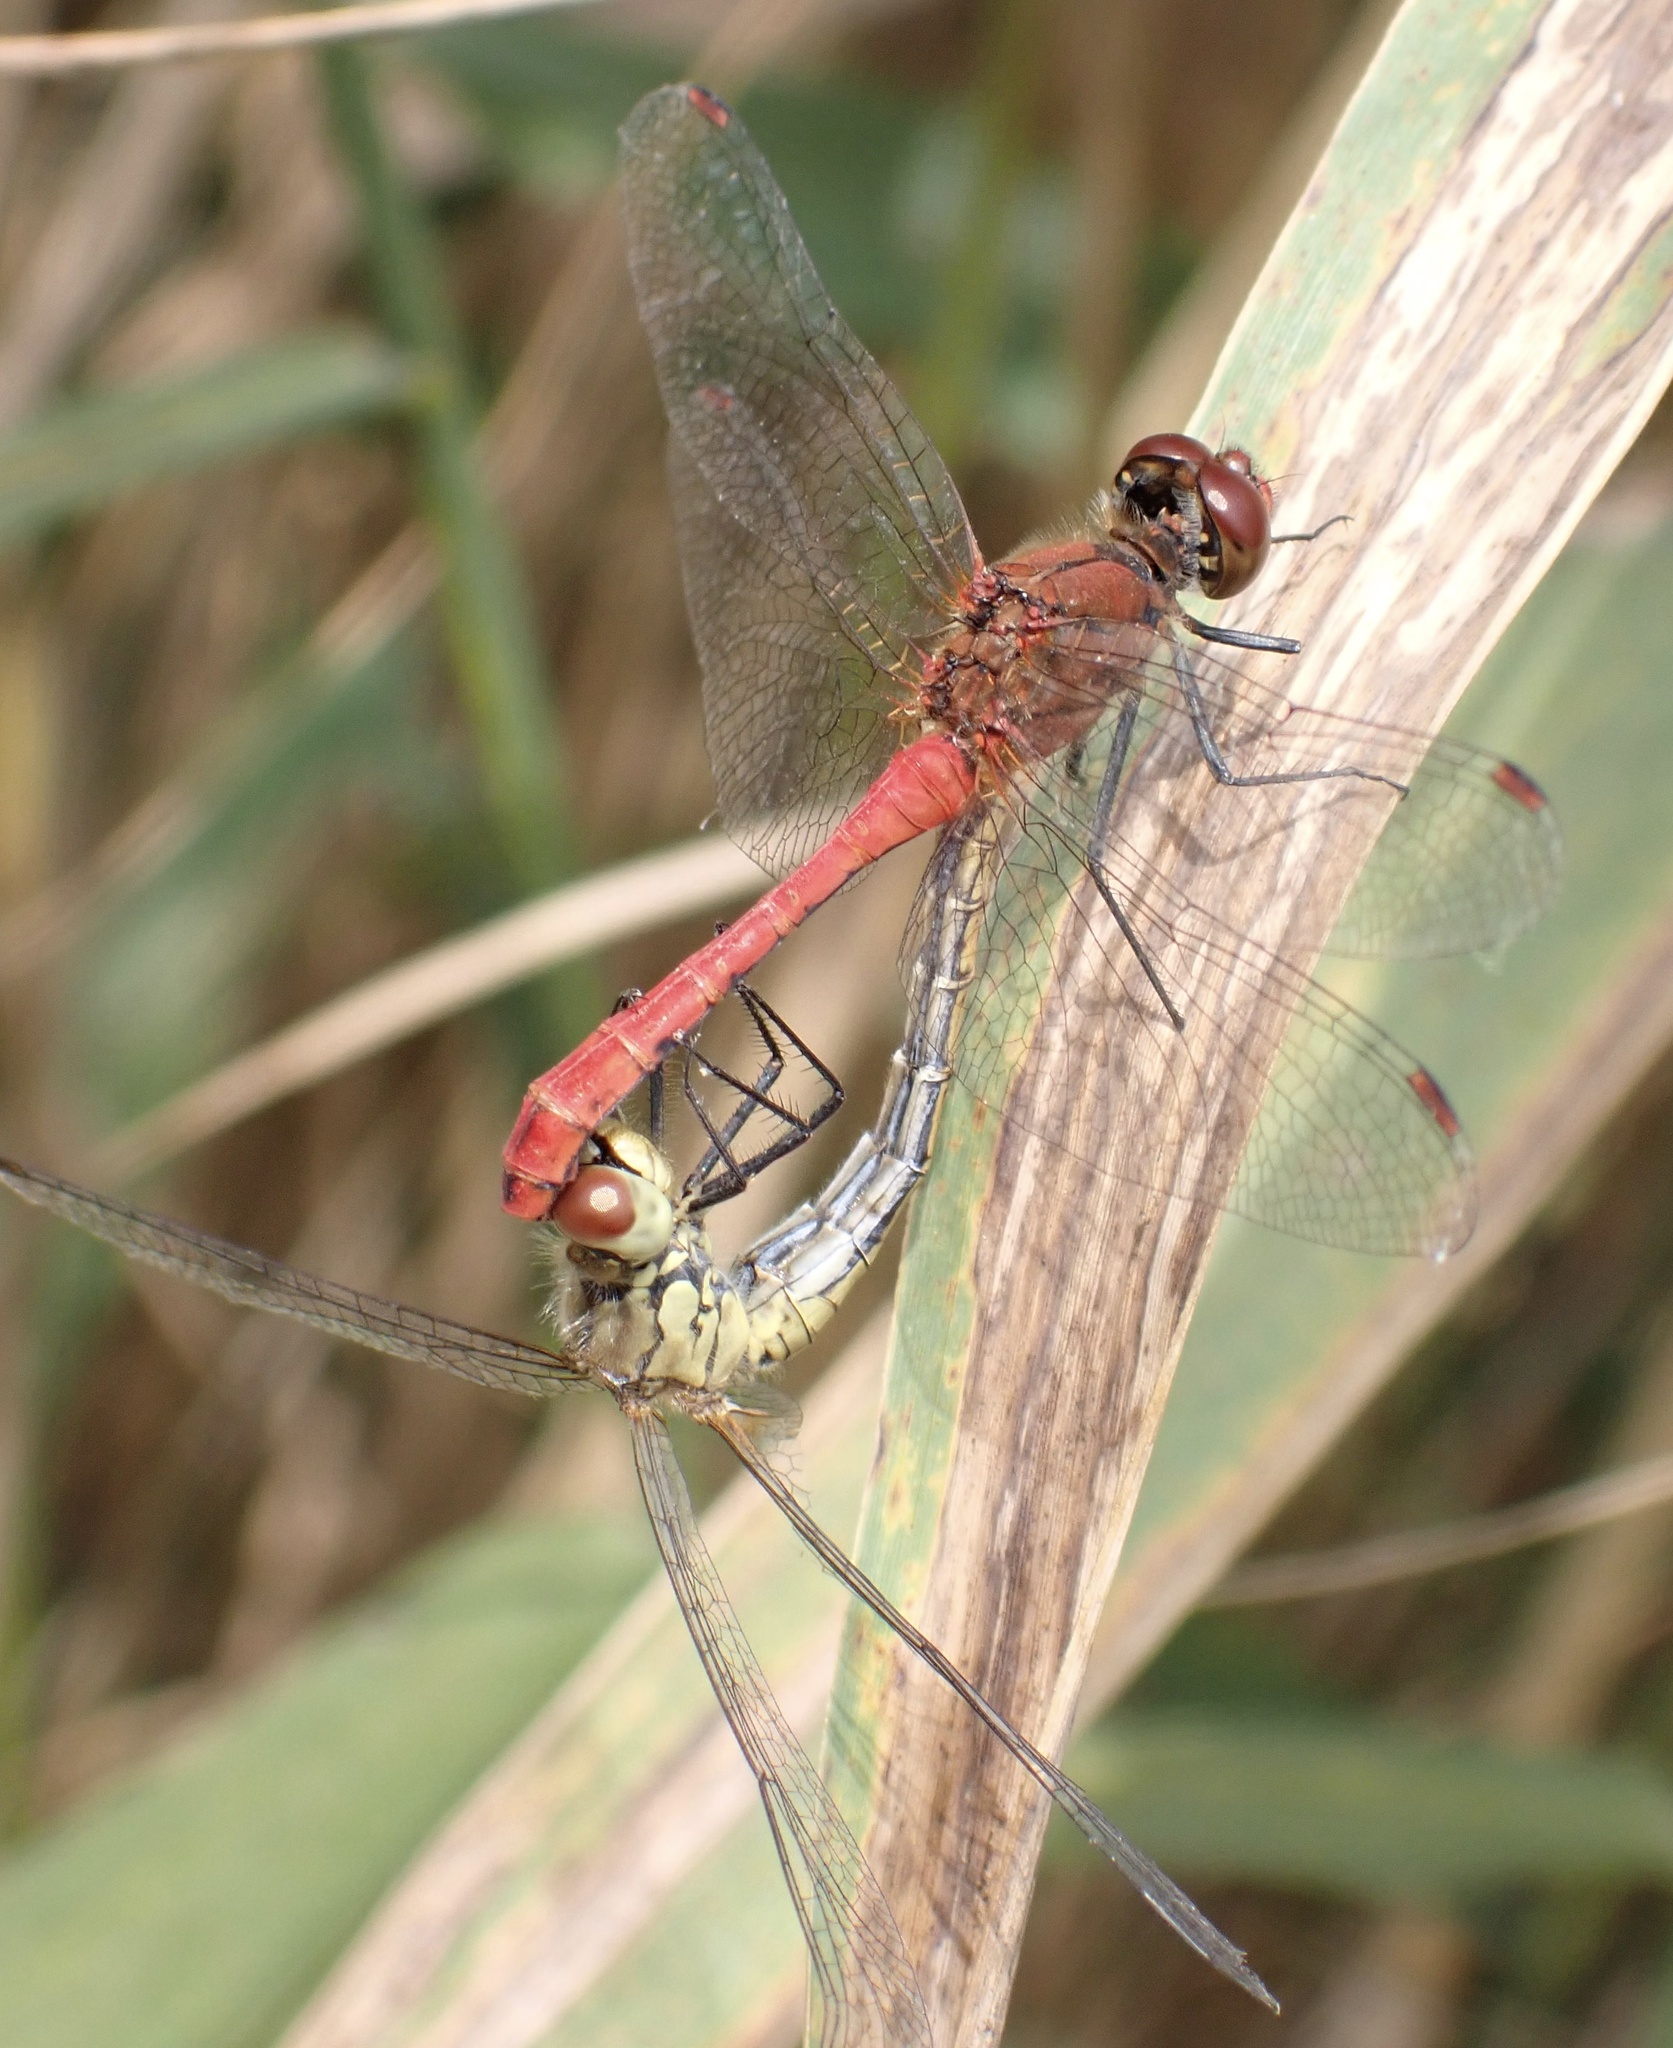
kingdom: Animalia
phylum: Arthropoda
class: Insecta
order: Odonata
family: Libellulidae
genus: Sympetrum
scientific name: Sympetrum sanguineum
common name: Ruddy darter
